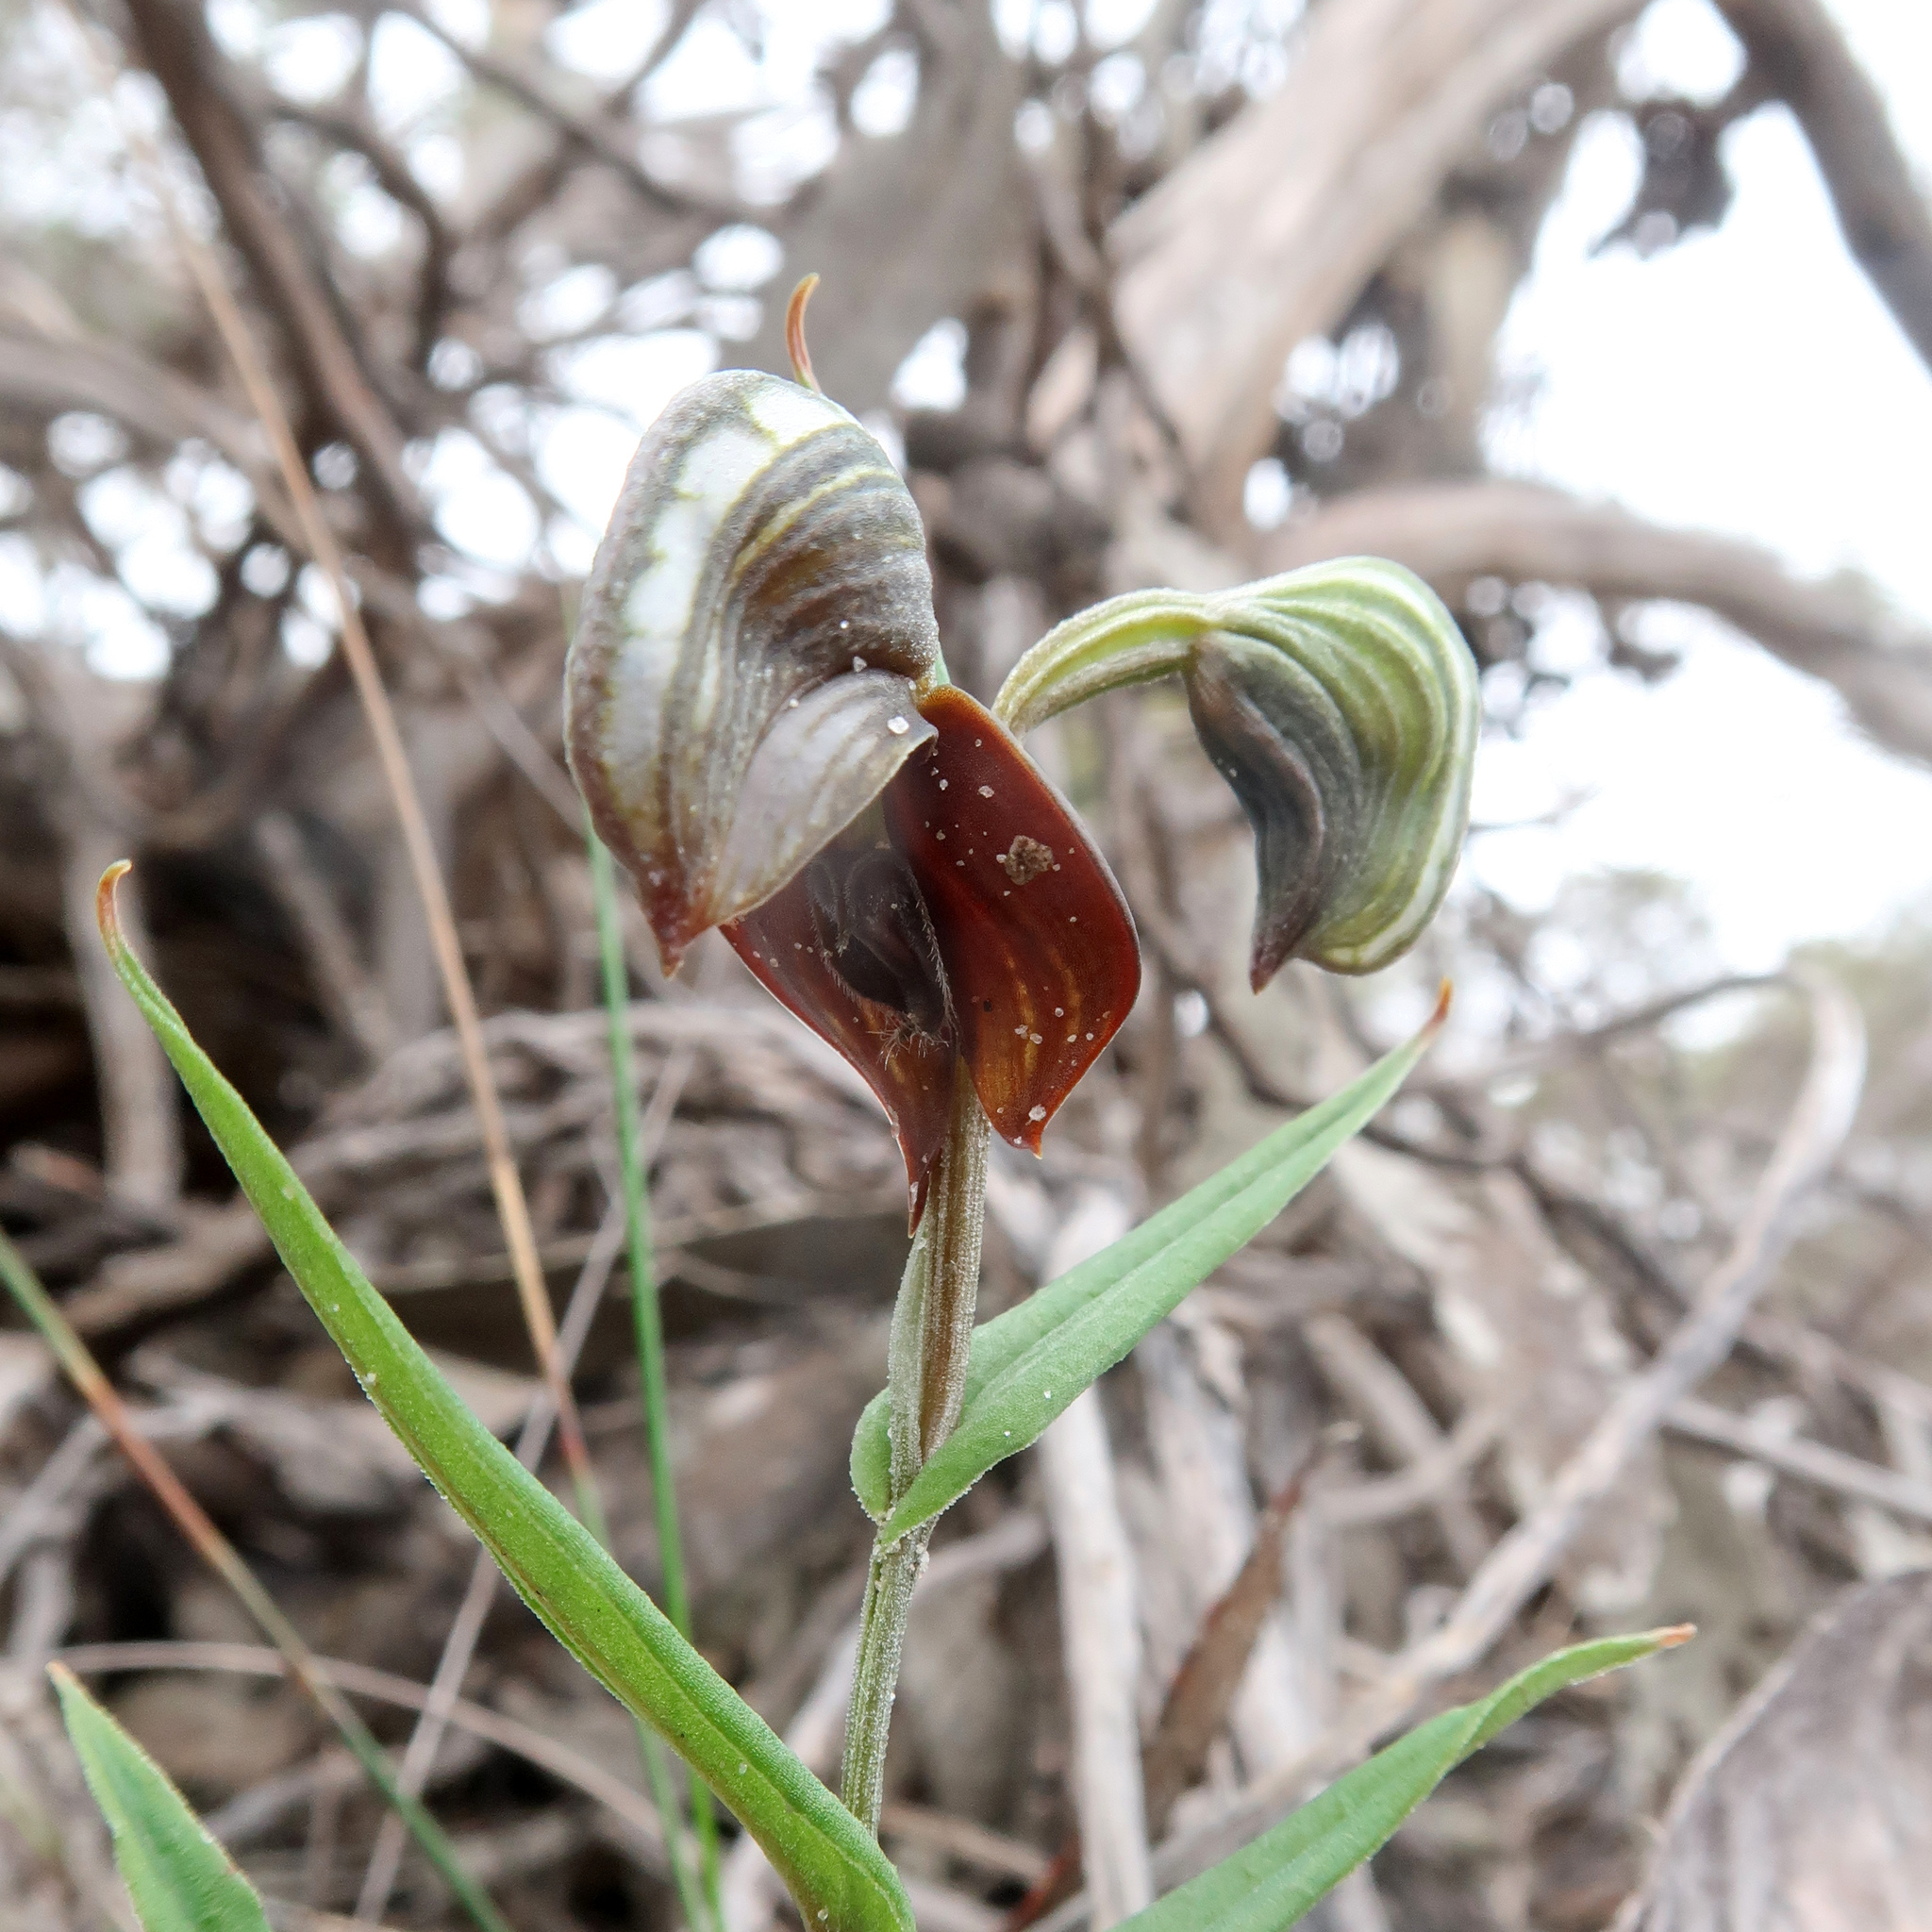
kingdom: Plantae
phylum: Tracheophyta
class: Liliopsida
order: Asparagales
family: Orchidaceae
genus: Pterostylis
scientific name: Pterostylis sanguinea
